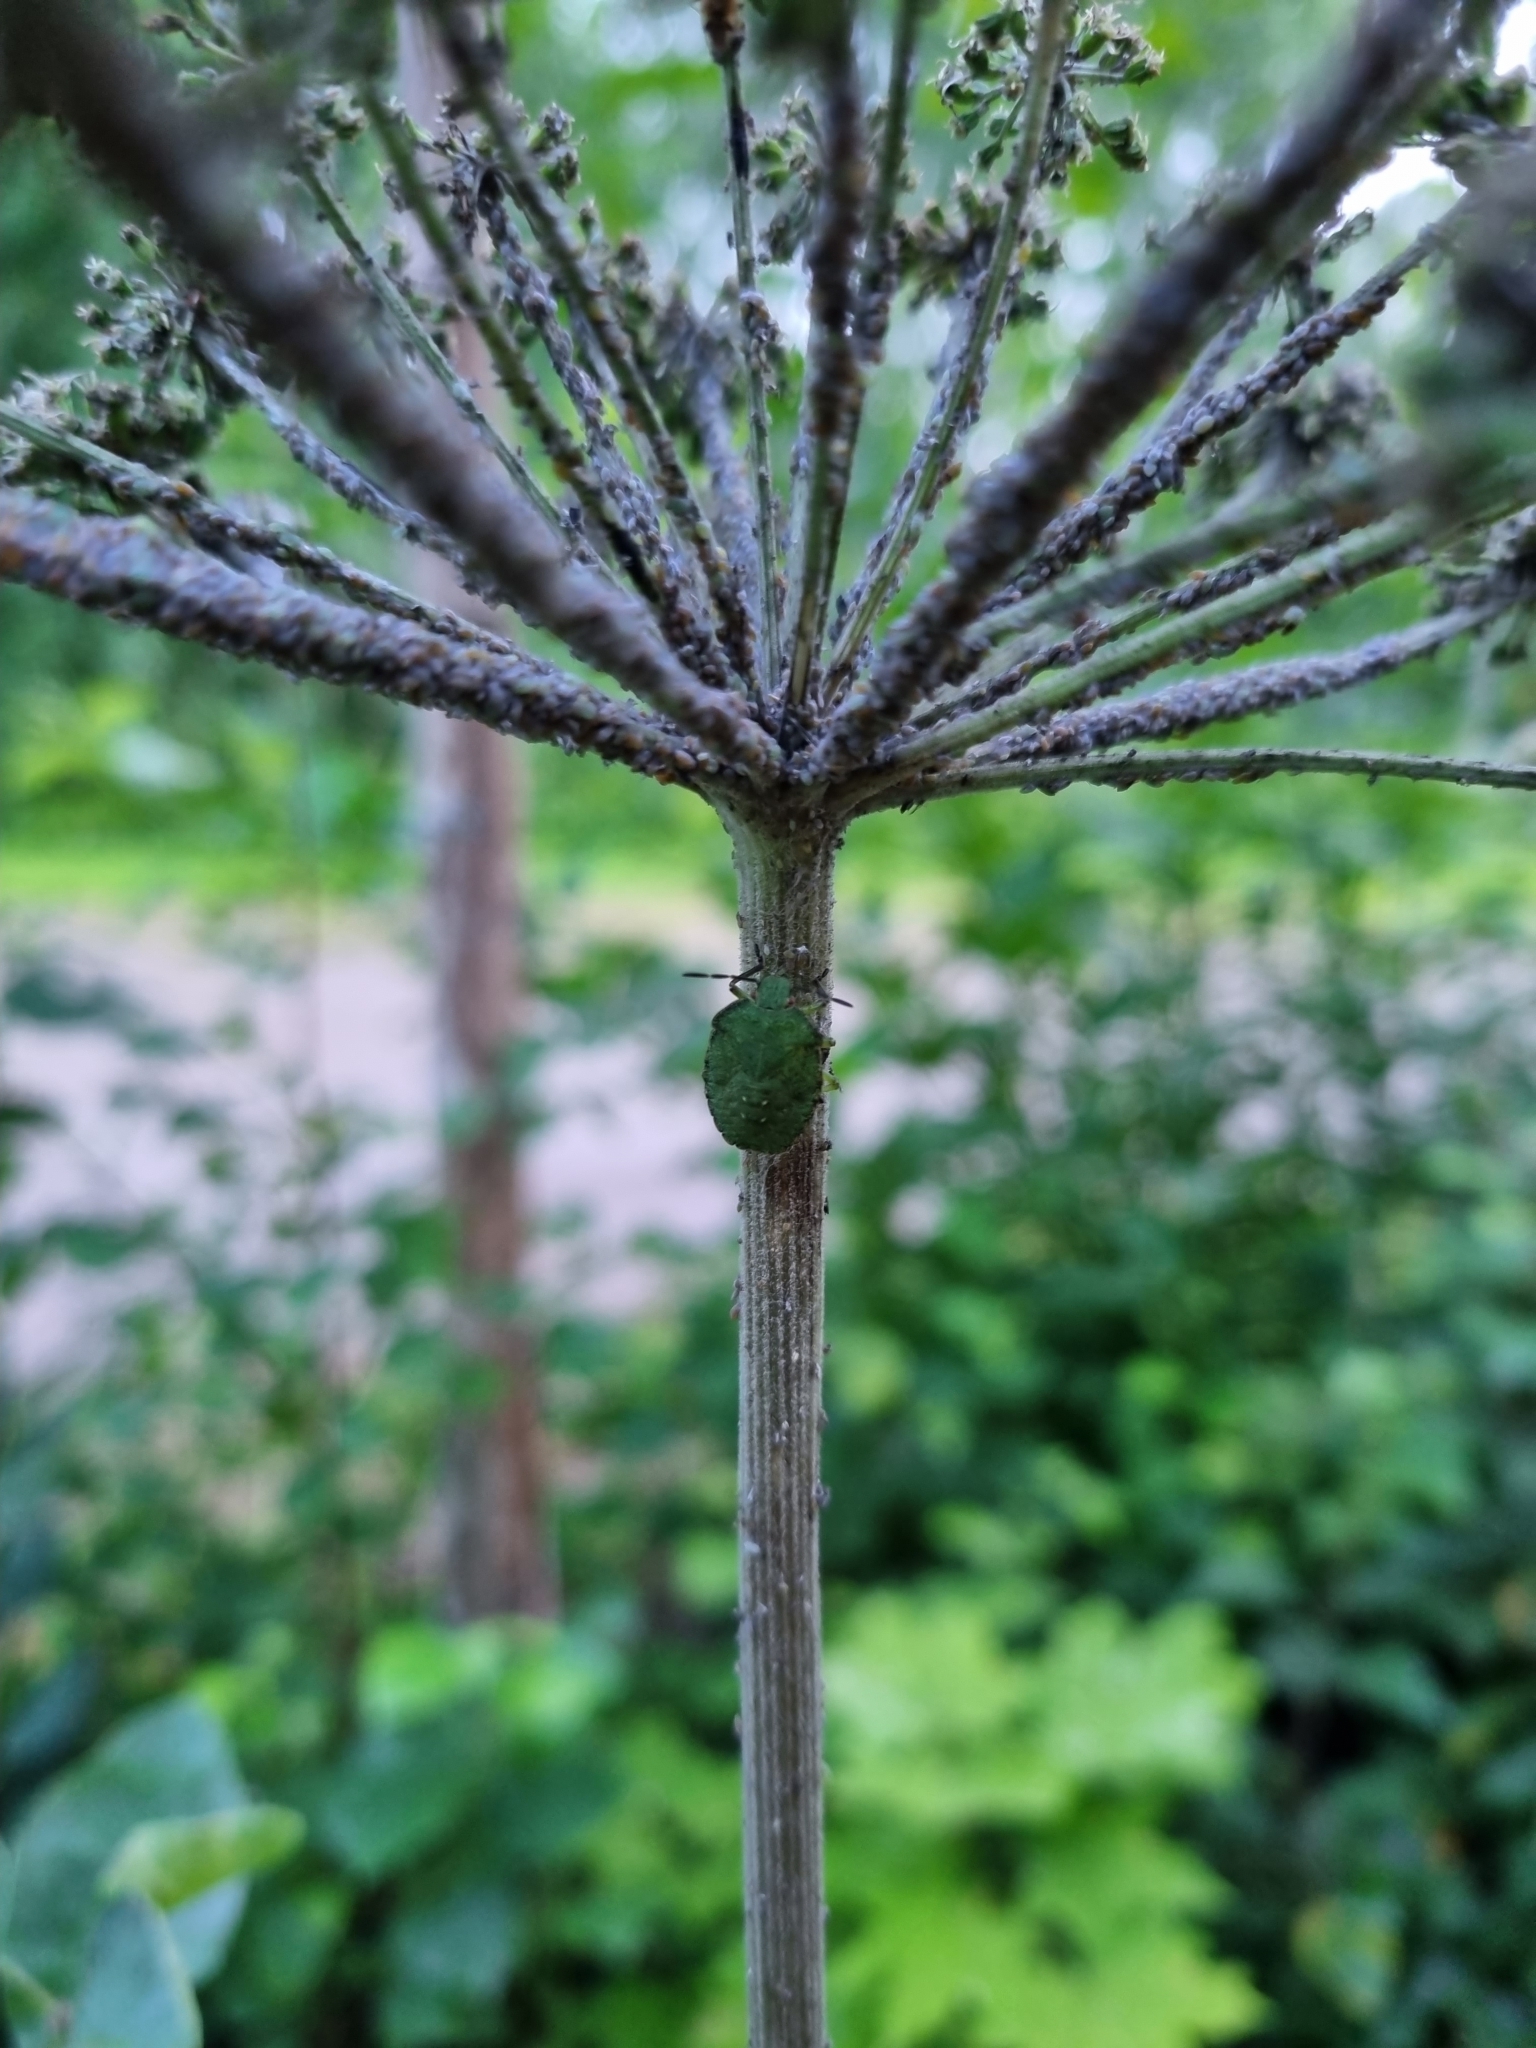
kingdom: Animalia
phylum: Arthropoda
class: Insecta
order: Hemiptera
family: Pentatomidae
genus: Palomena
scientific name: Palomena prasina
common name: Green shieldbug
